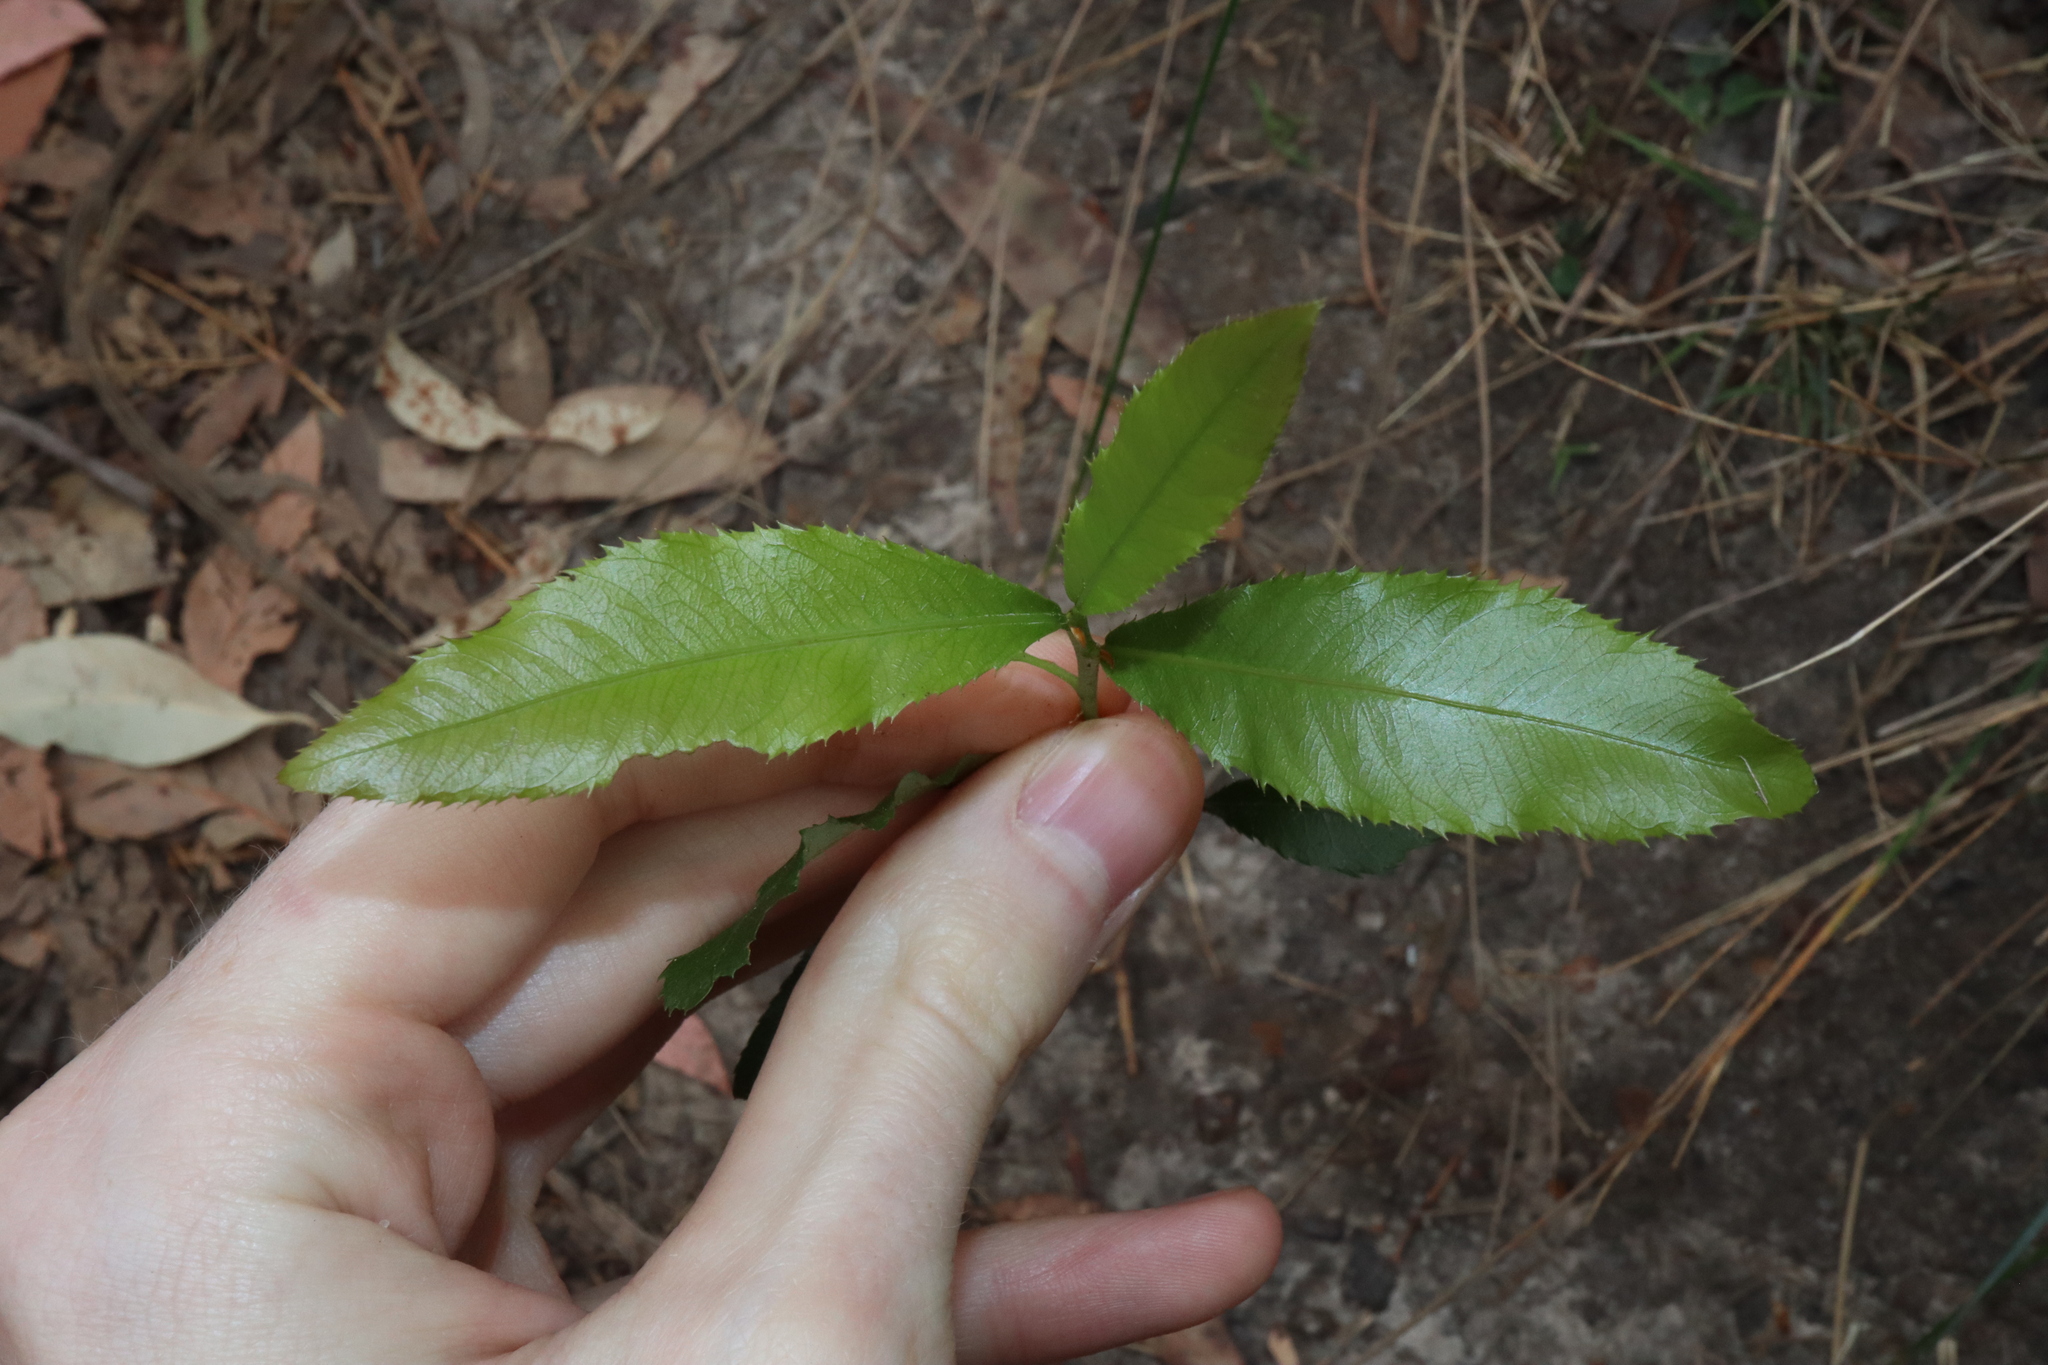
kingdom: Plantae
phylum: Tracheophyta
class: Magnoliopsida
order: Malpighiales
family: Ochnaceae
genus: Ochna
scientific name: Ochna serrulata
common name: Mickey mouse plant
